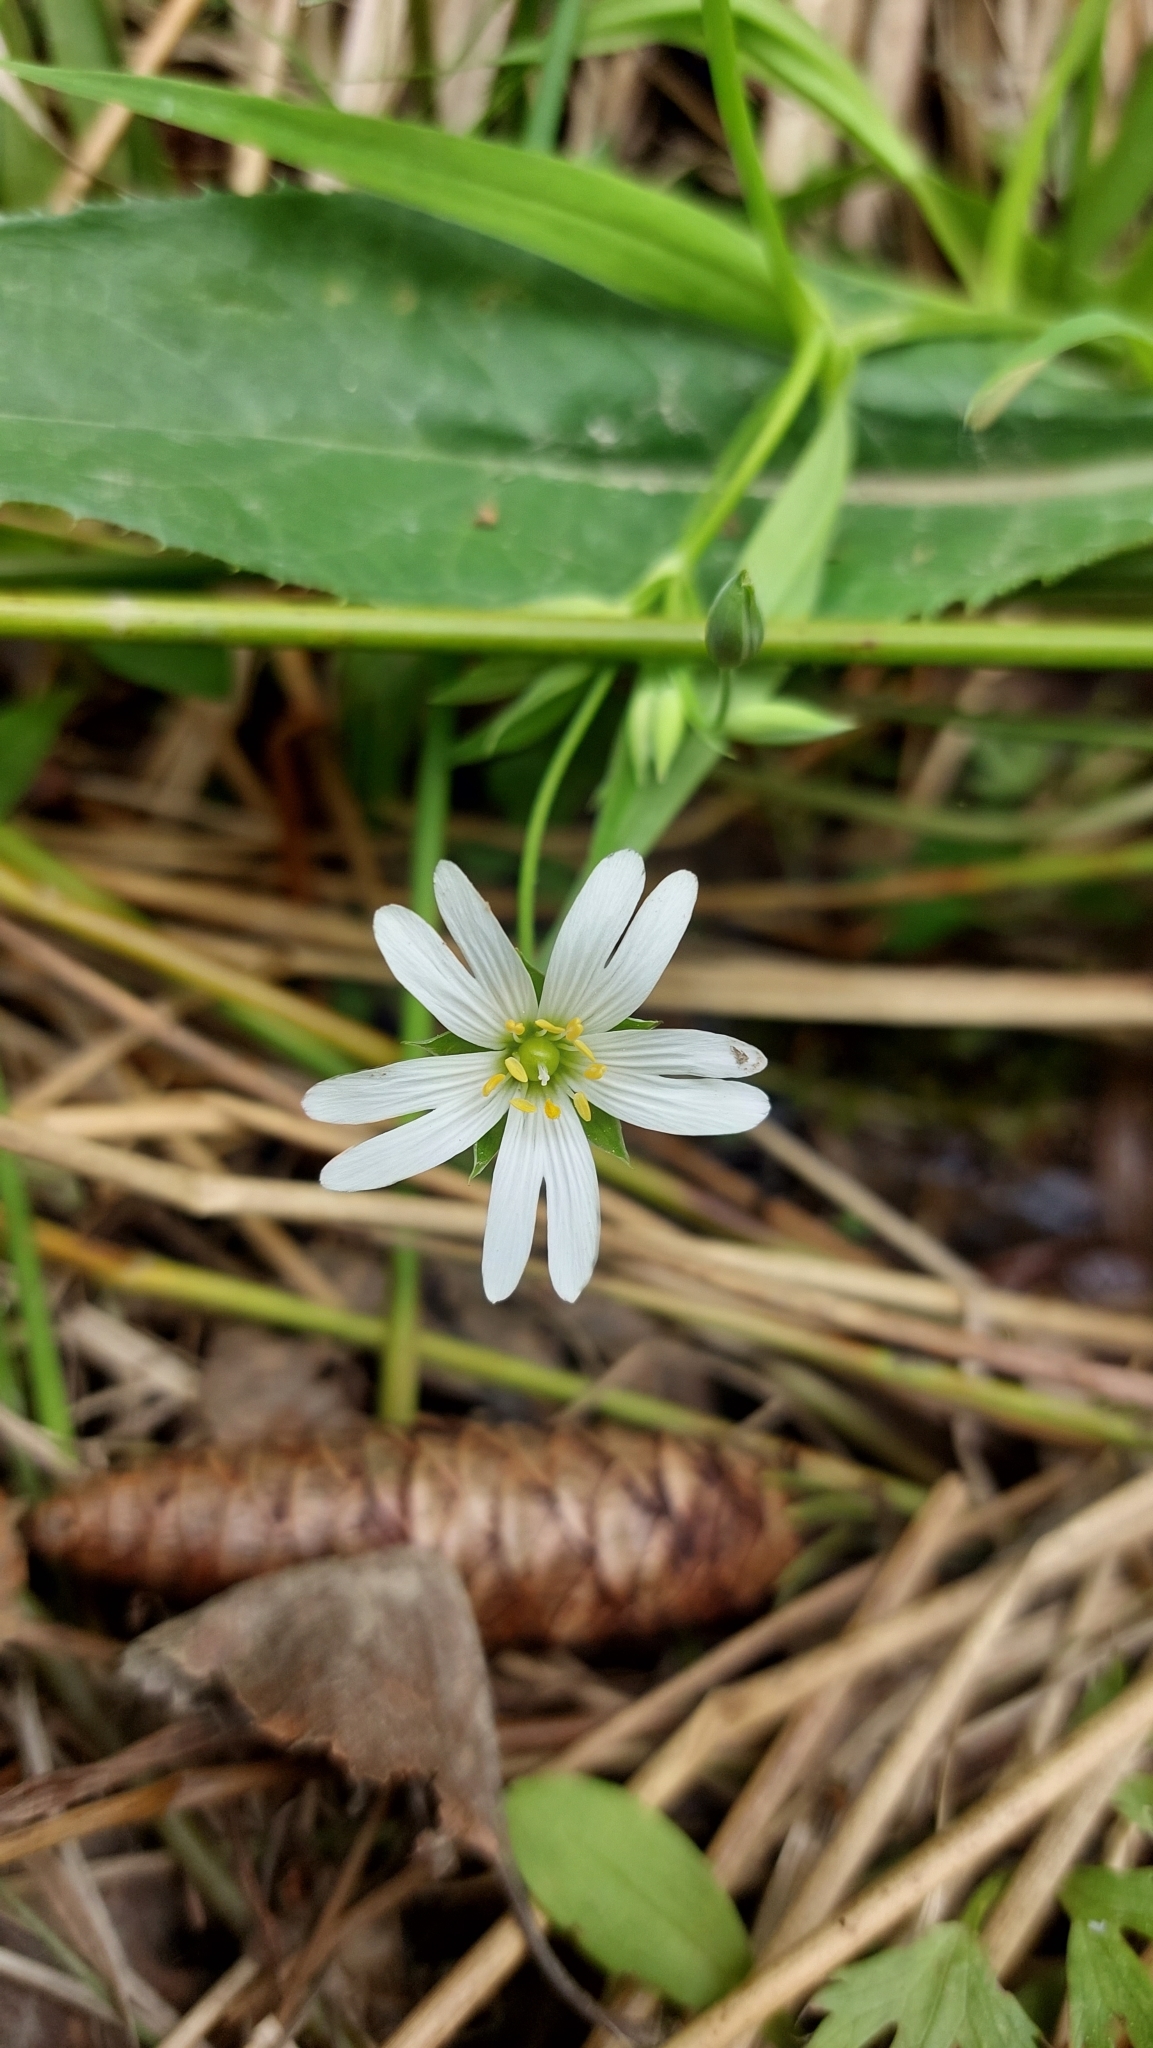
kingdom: Plantae
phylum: Tracheophyta
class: Magnoliopsida
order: Caryophyllales
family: Caryophyllaceae
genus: Rabelera
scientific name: Rabelera holostea
